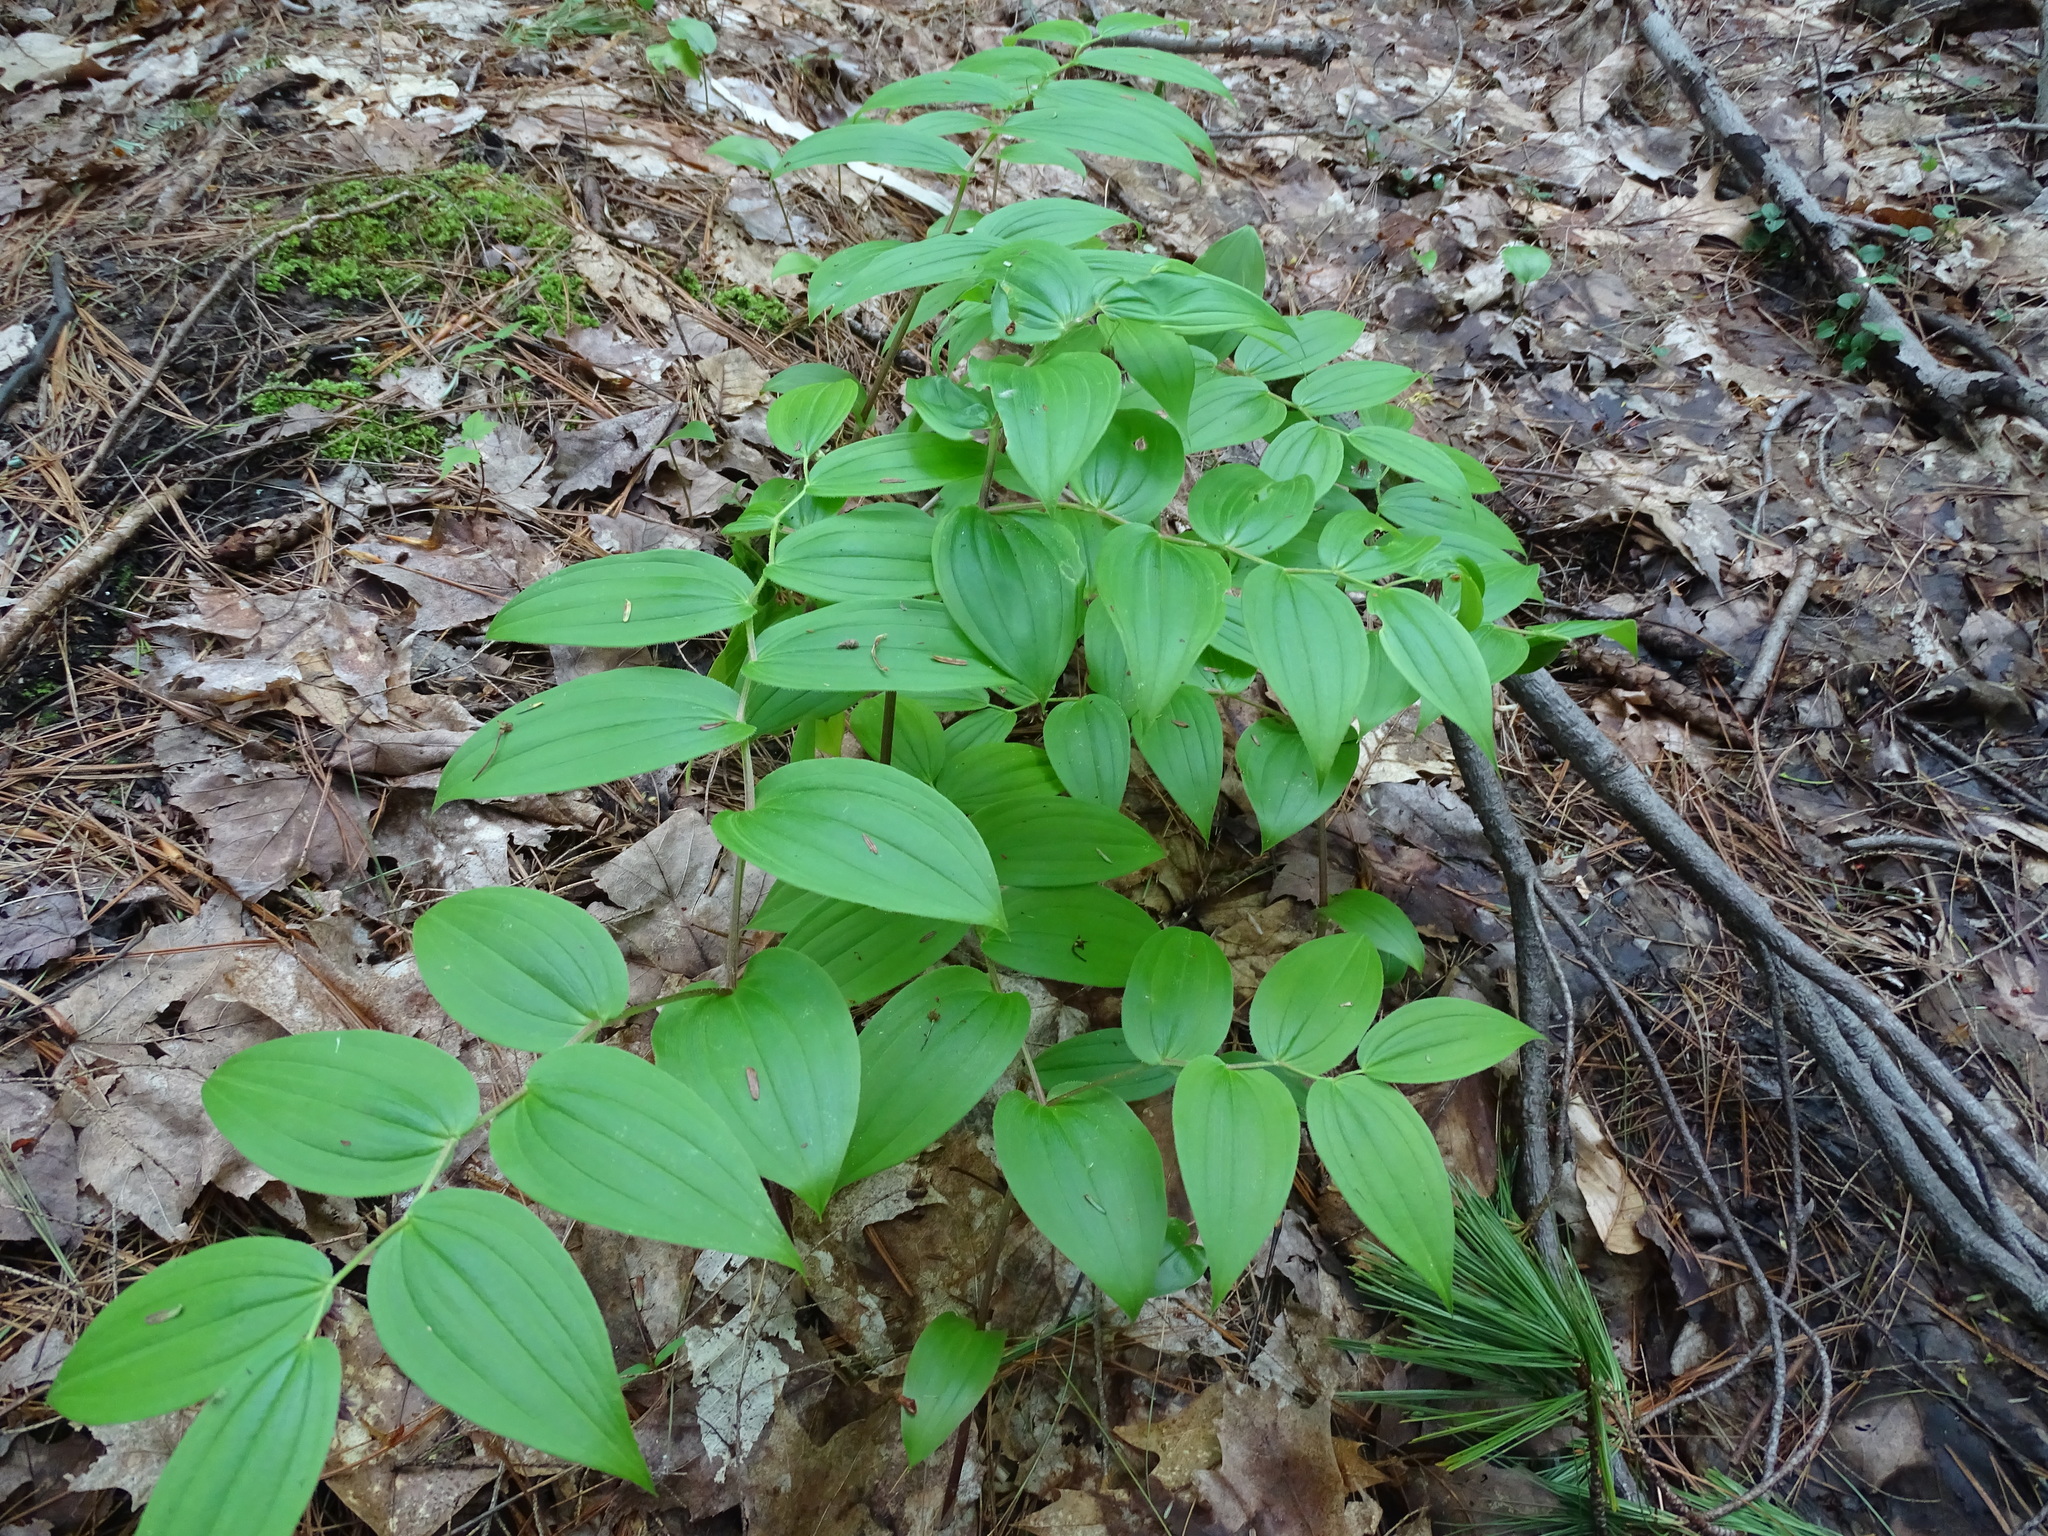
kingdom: Plantae
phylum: Tracheophyta
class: Liliopsida
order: Liliales
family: Liliaceae
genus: Streptopus
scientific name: Streptopus lanceolatus
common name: Rose mandarin
